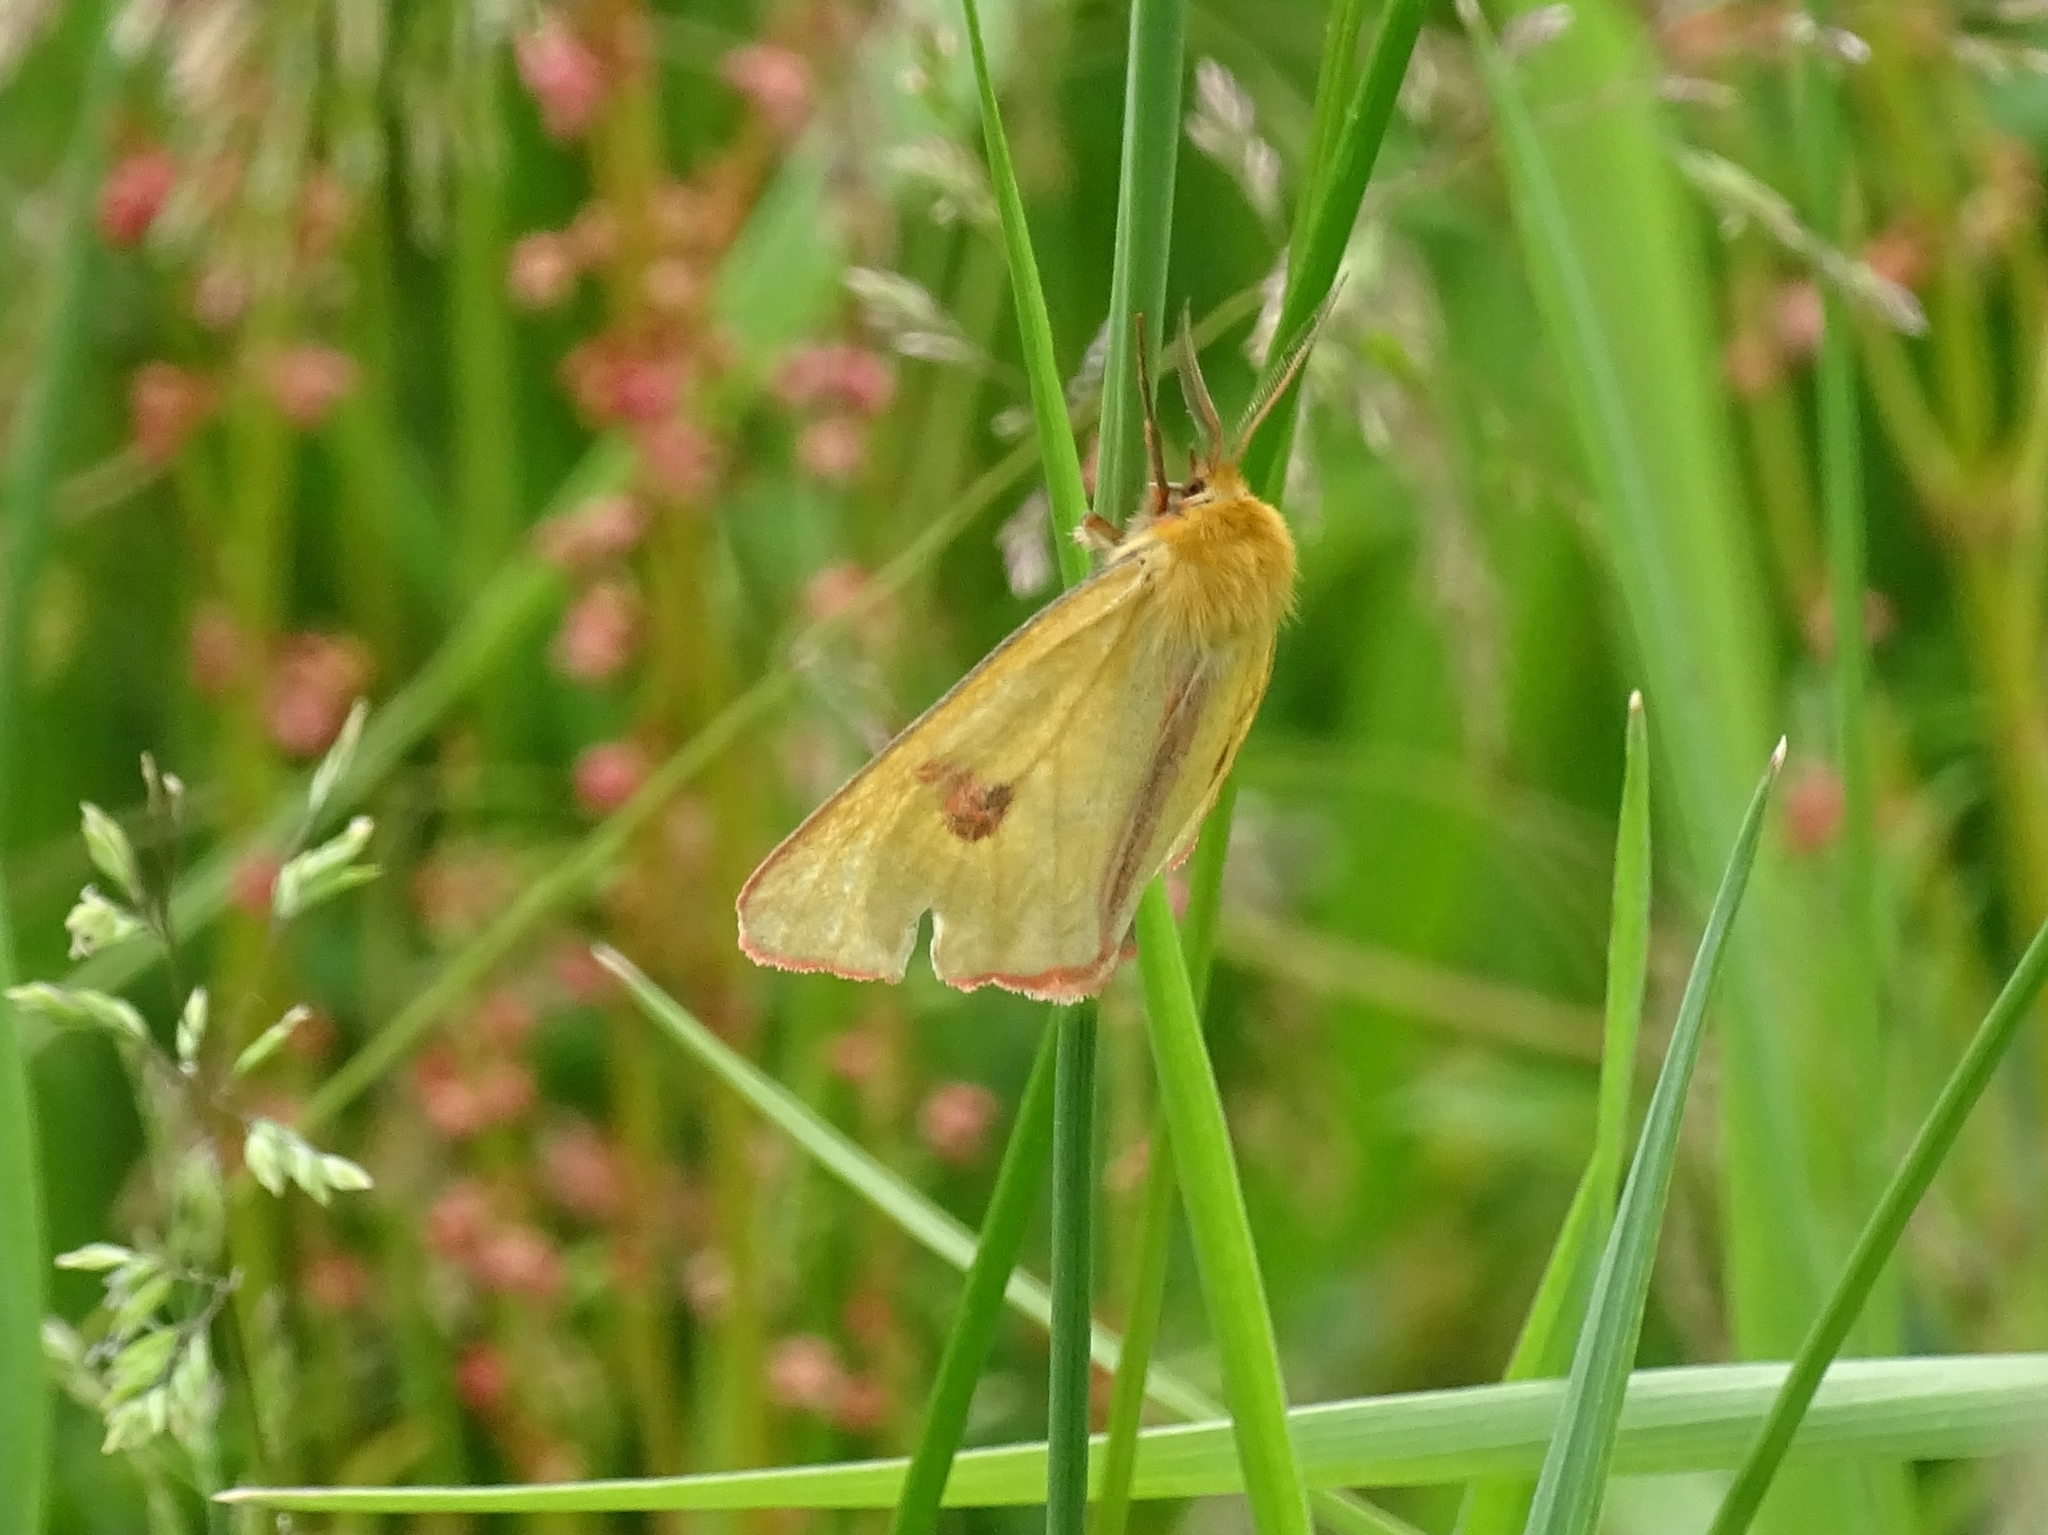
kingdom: Animalia
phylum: Arthropoda
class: Insecta
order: Lepidoptera
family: Erebidae
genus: Diacrisia
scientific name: Diacrisia sannio
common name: Clouded buff
